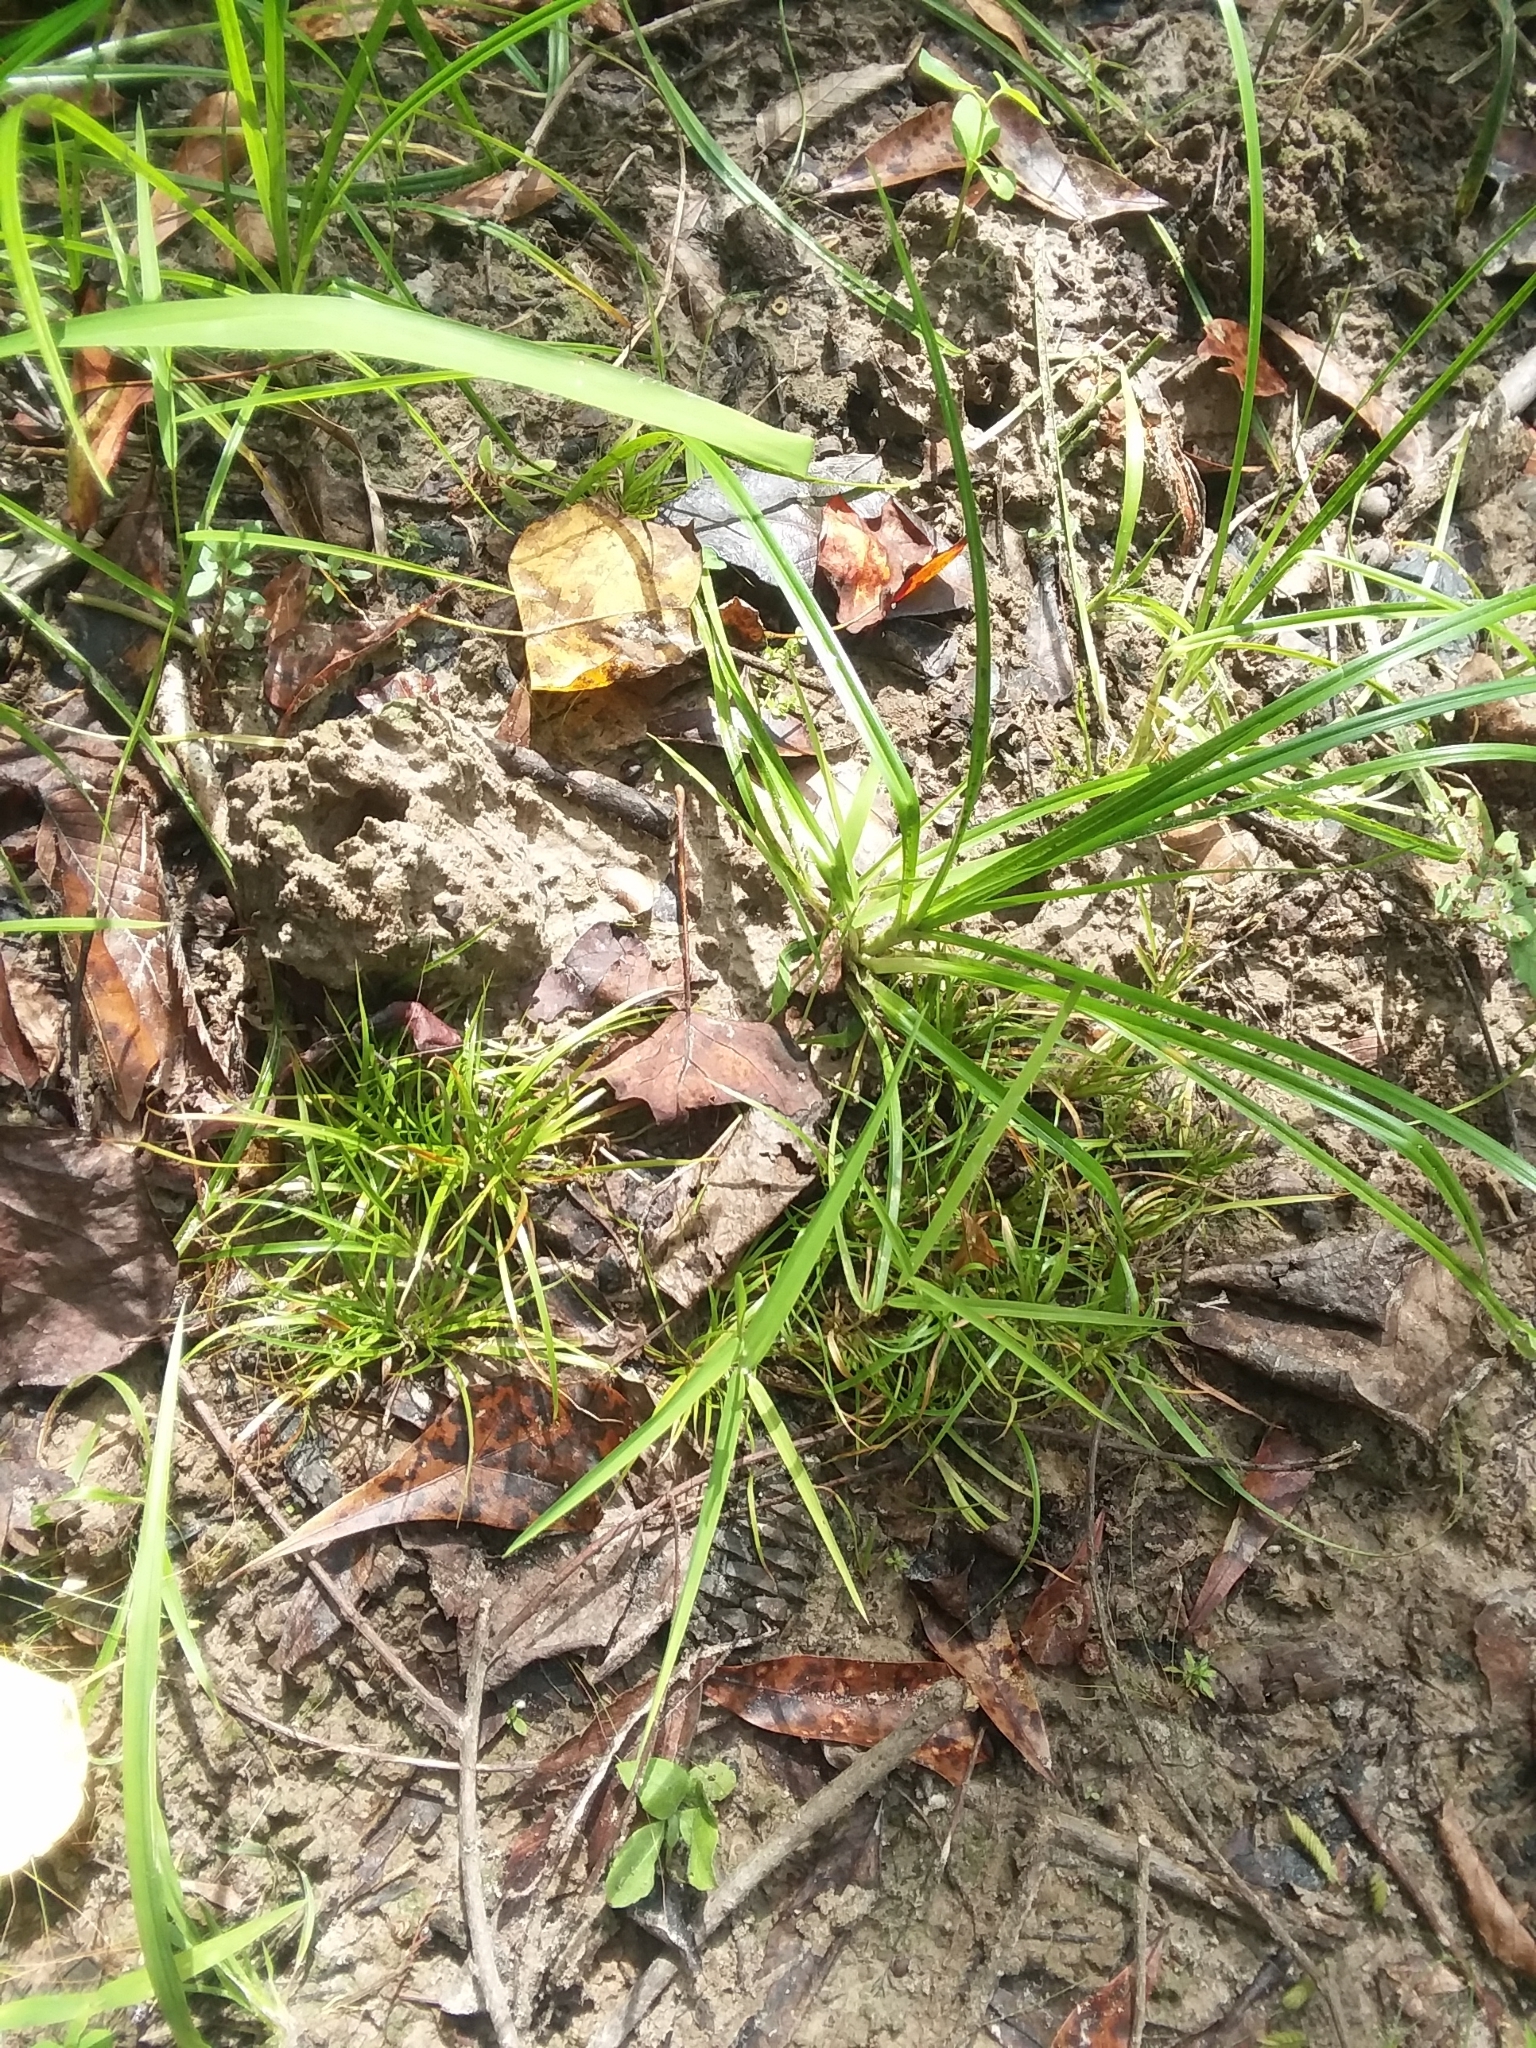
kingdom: Plantae
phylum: Tracheophyta
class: Liliopsida
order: Poales
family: Juncaceae
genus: Juncus
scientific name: Juncus repens
